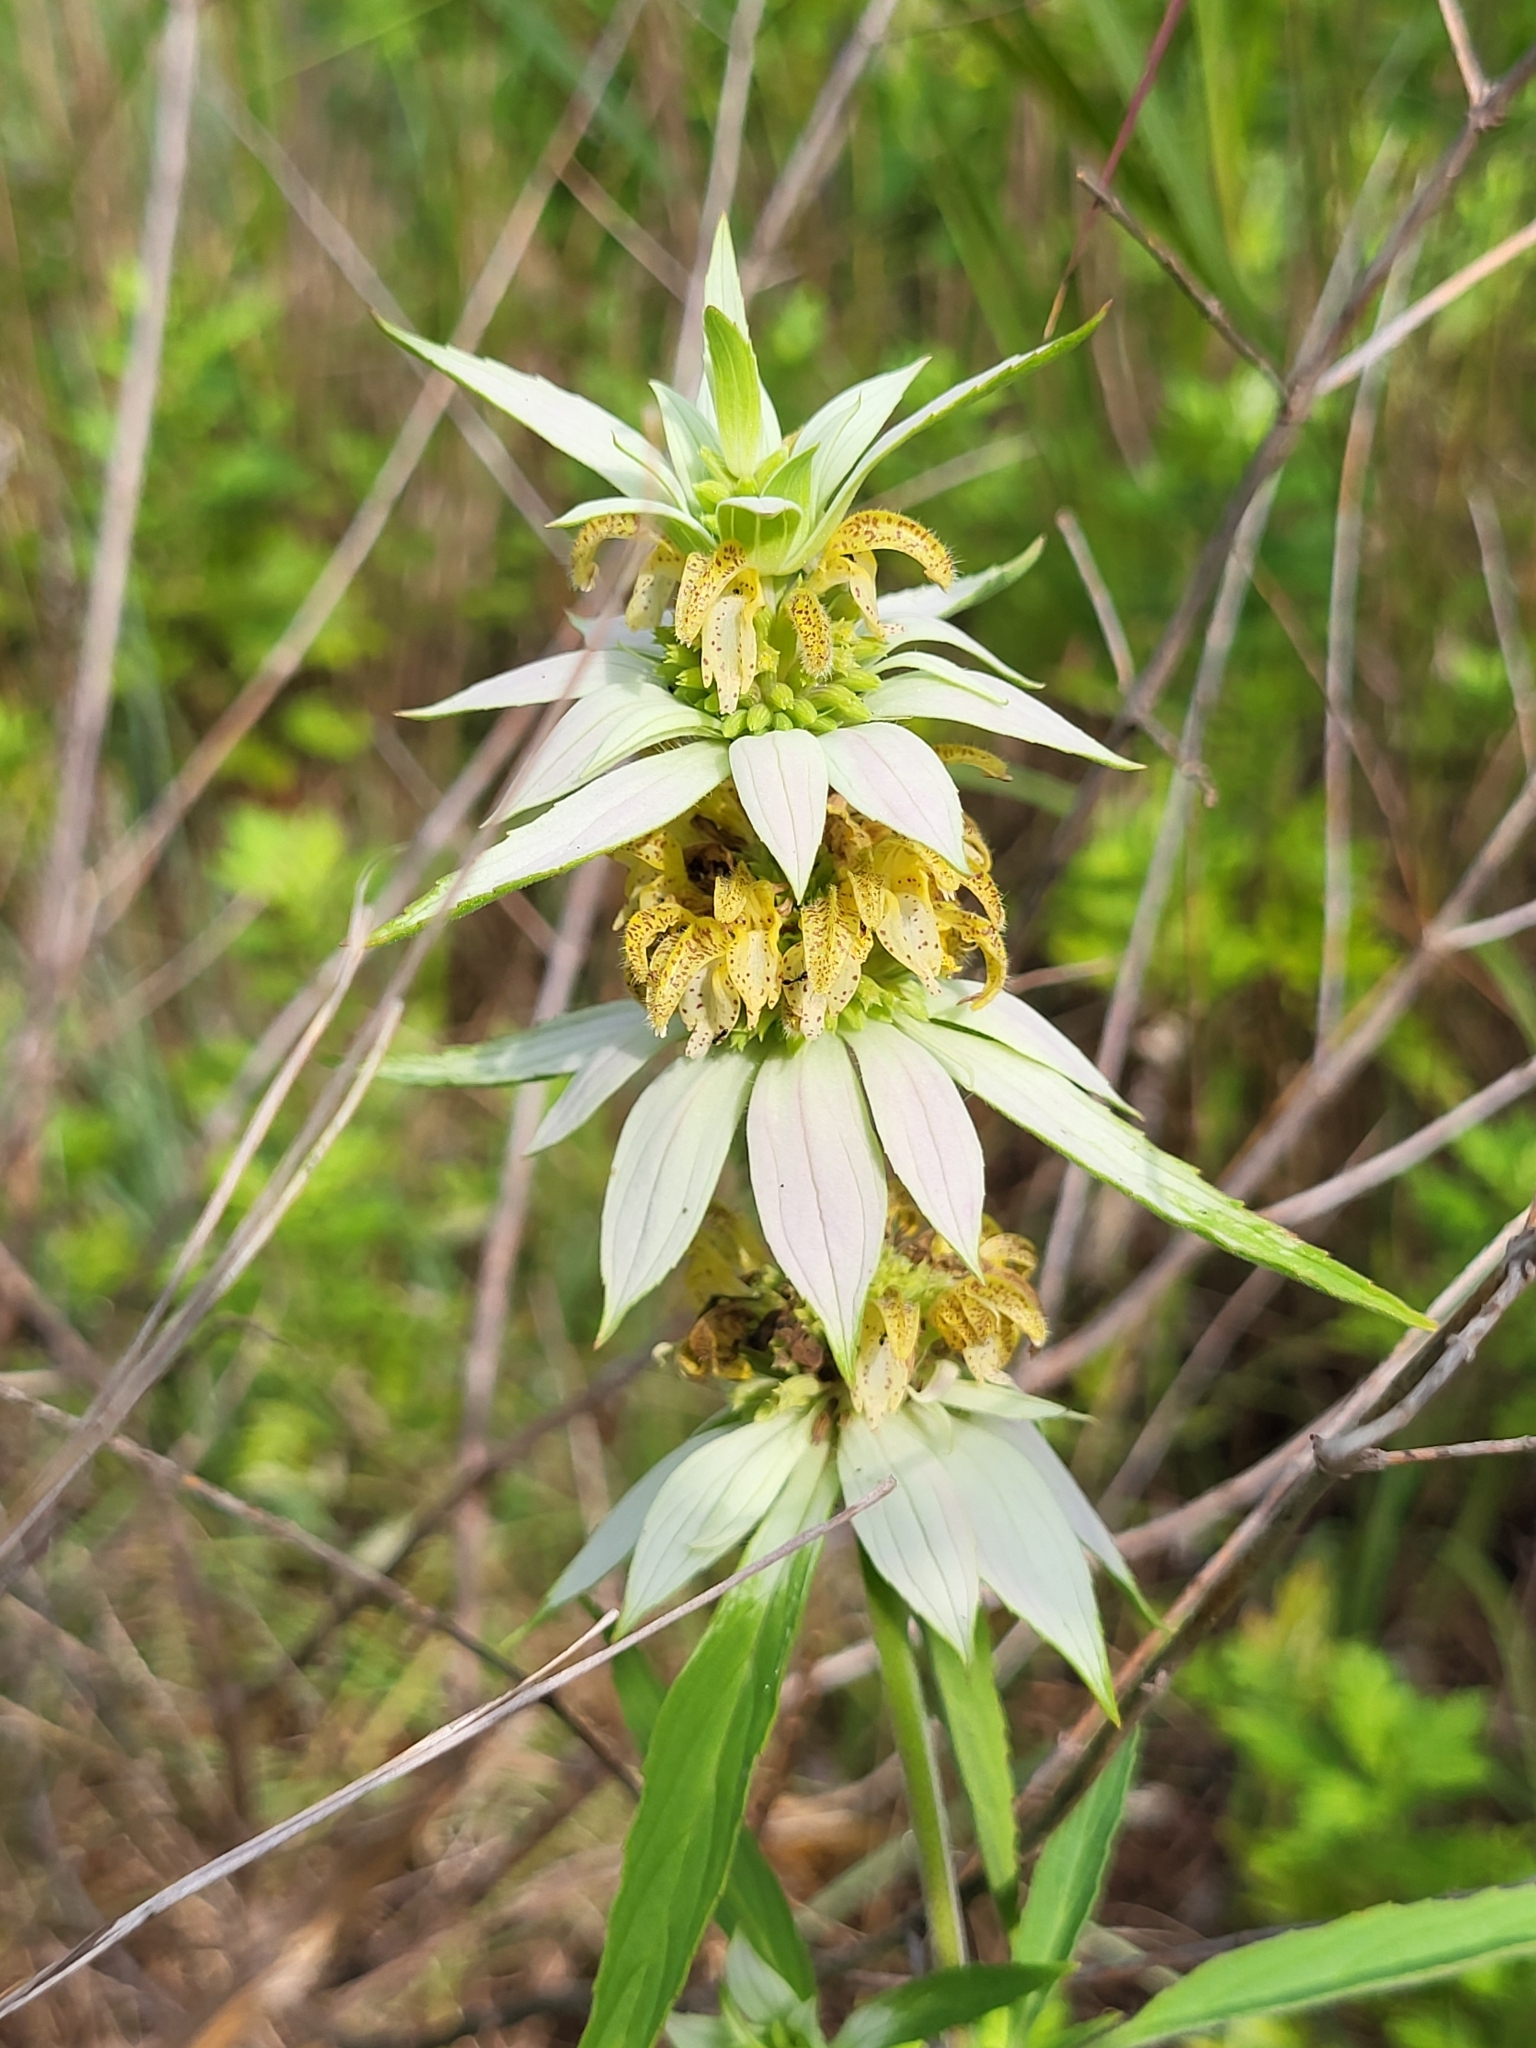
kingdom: Plantae
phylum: Tracheophyta
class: Magnoliopsida
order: Lamiales
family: Lamiaceae
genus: Monarda
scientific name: Monarda punctata
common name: Dotted monarda
